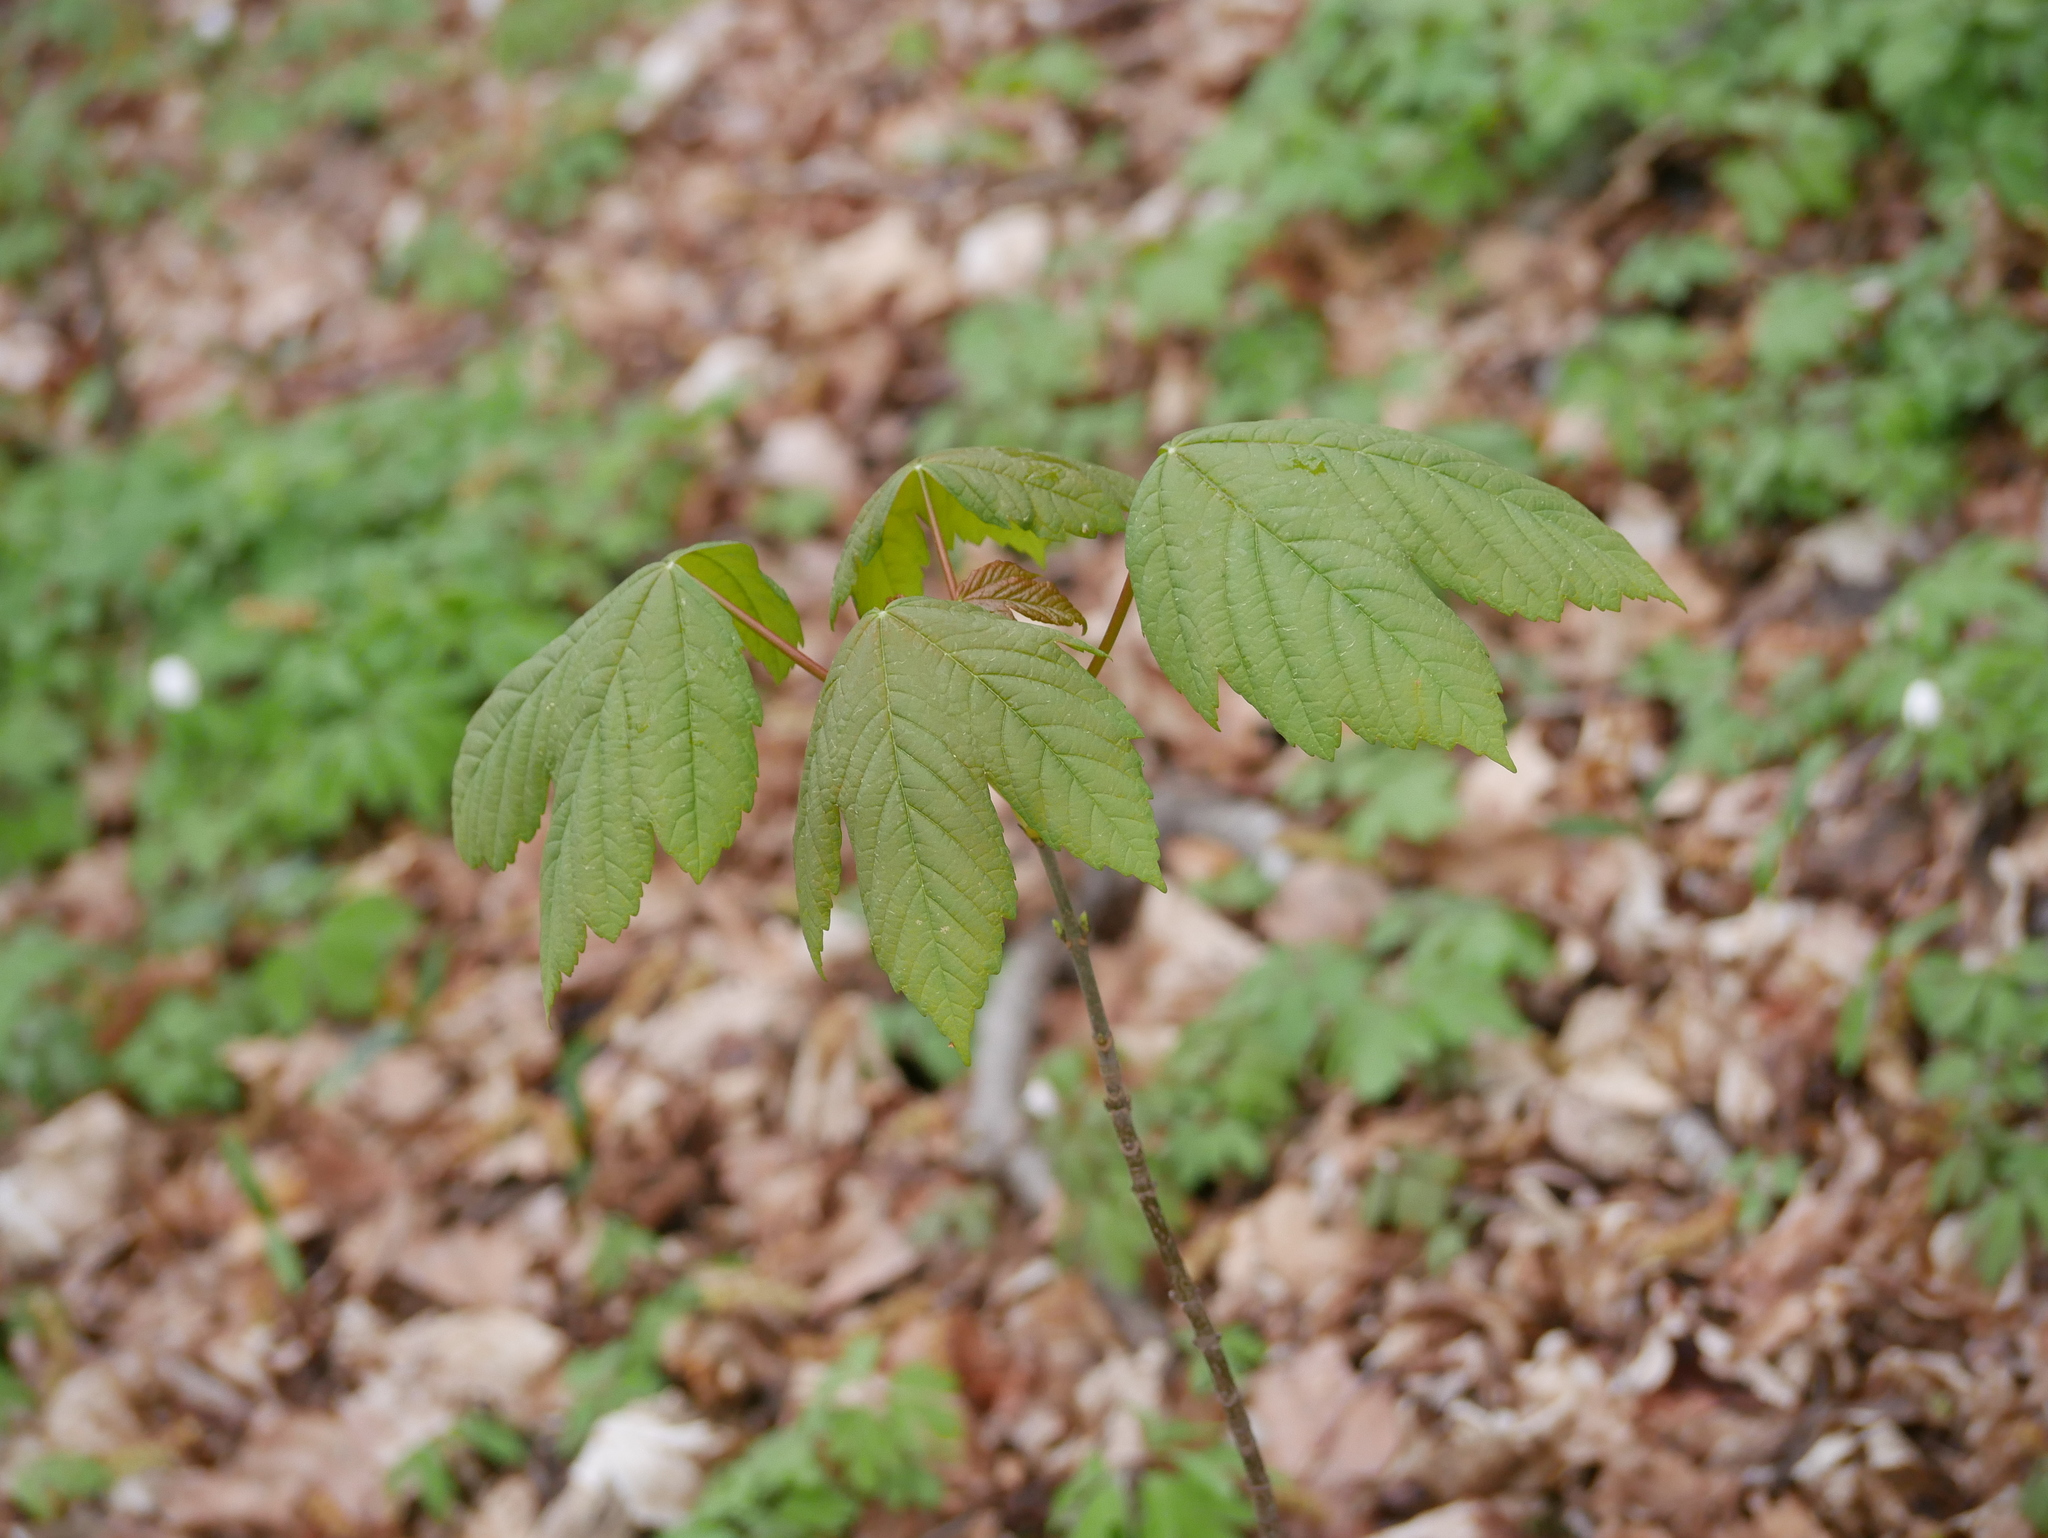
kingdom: Plantae
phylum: Tracheophyta
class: Magnoliopsida
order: Sapindales
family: Sapindaceae
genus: Acer
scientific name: Acer pseudoplatanus
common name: Sycamore
